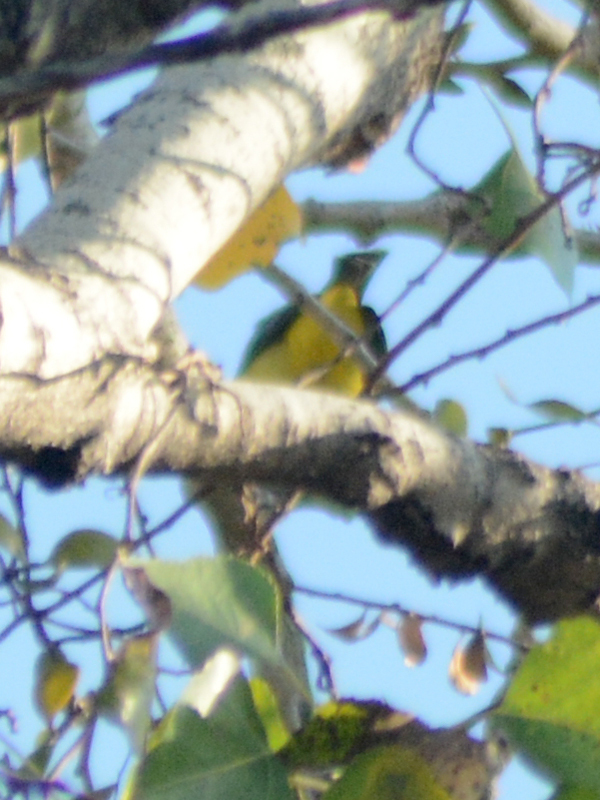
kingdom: Animalia
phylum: Chordata
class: Aves
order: Passeriformes
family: Fringillidae
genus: Spinus
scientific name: Spinus psaltria
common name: Lesser goldfinch
